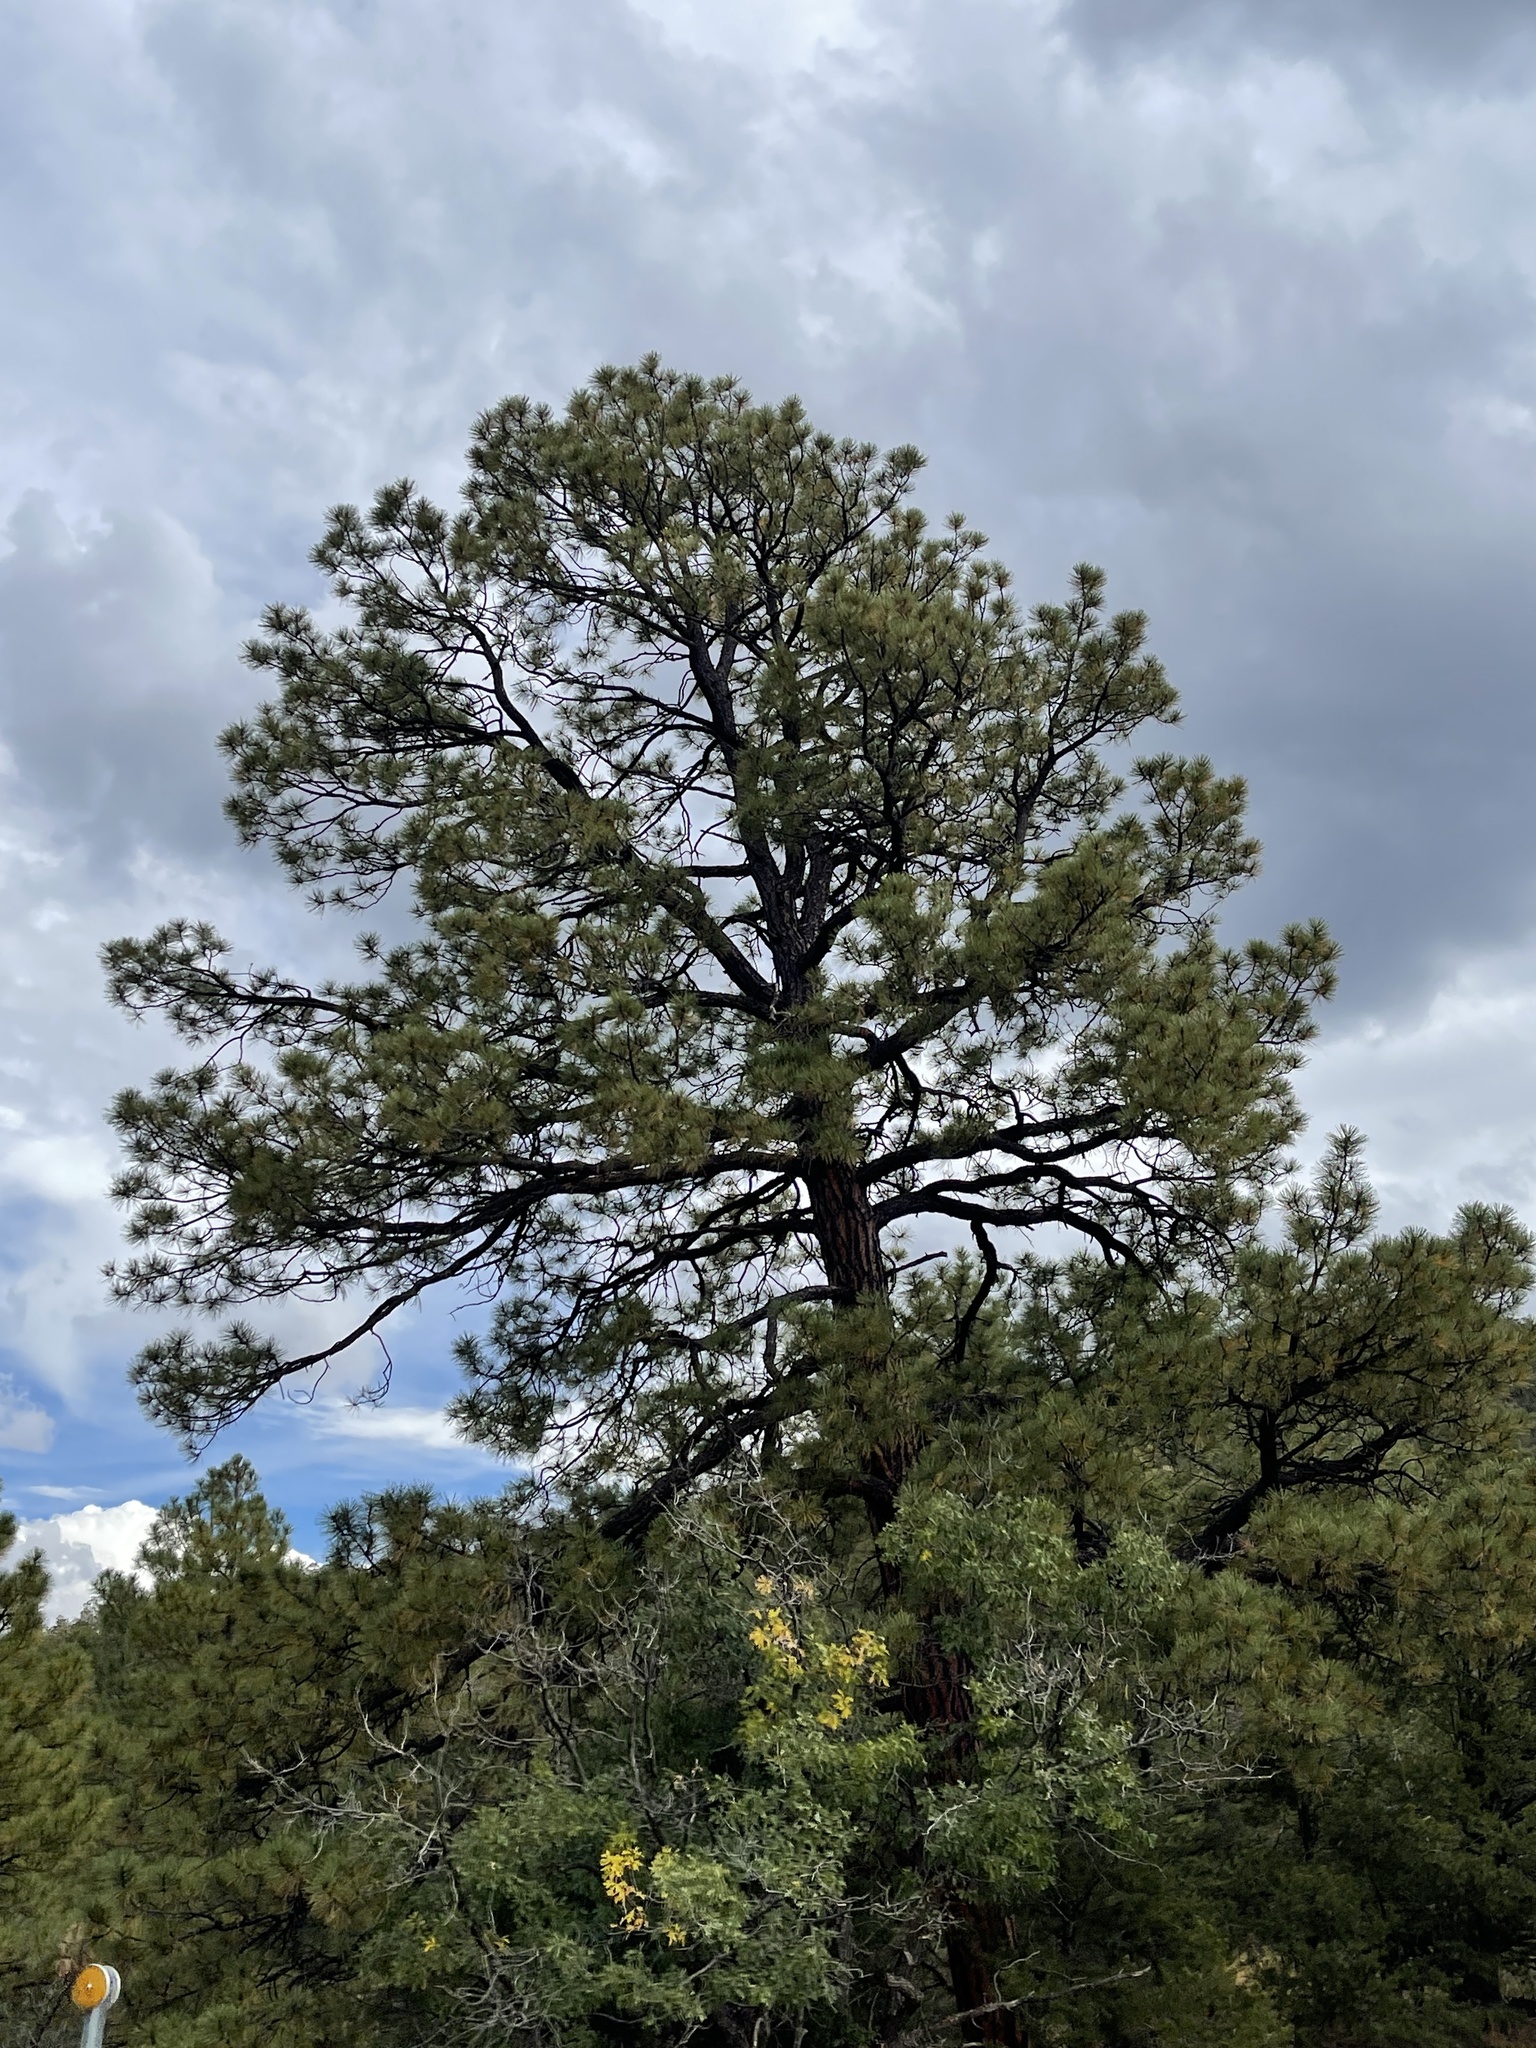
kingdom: Plantae
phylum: Tracheophyta
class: Pinopsida
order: Pinales
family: Pinaceae
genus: Pinus
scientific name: Pinus ponderosa
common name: Western yellow-pine
